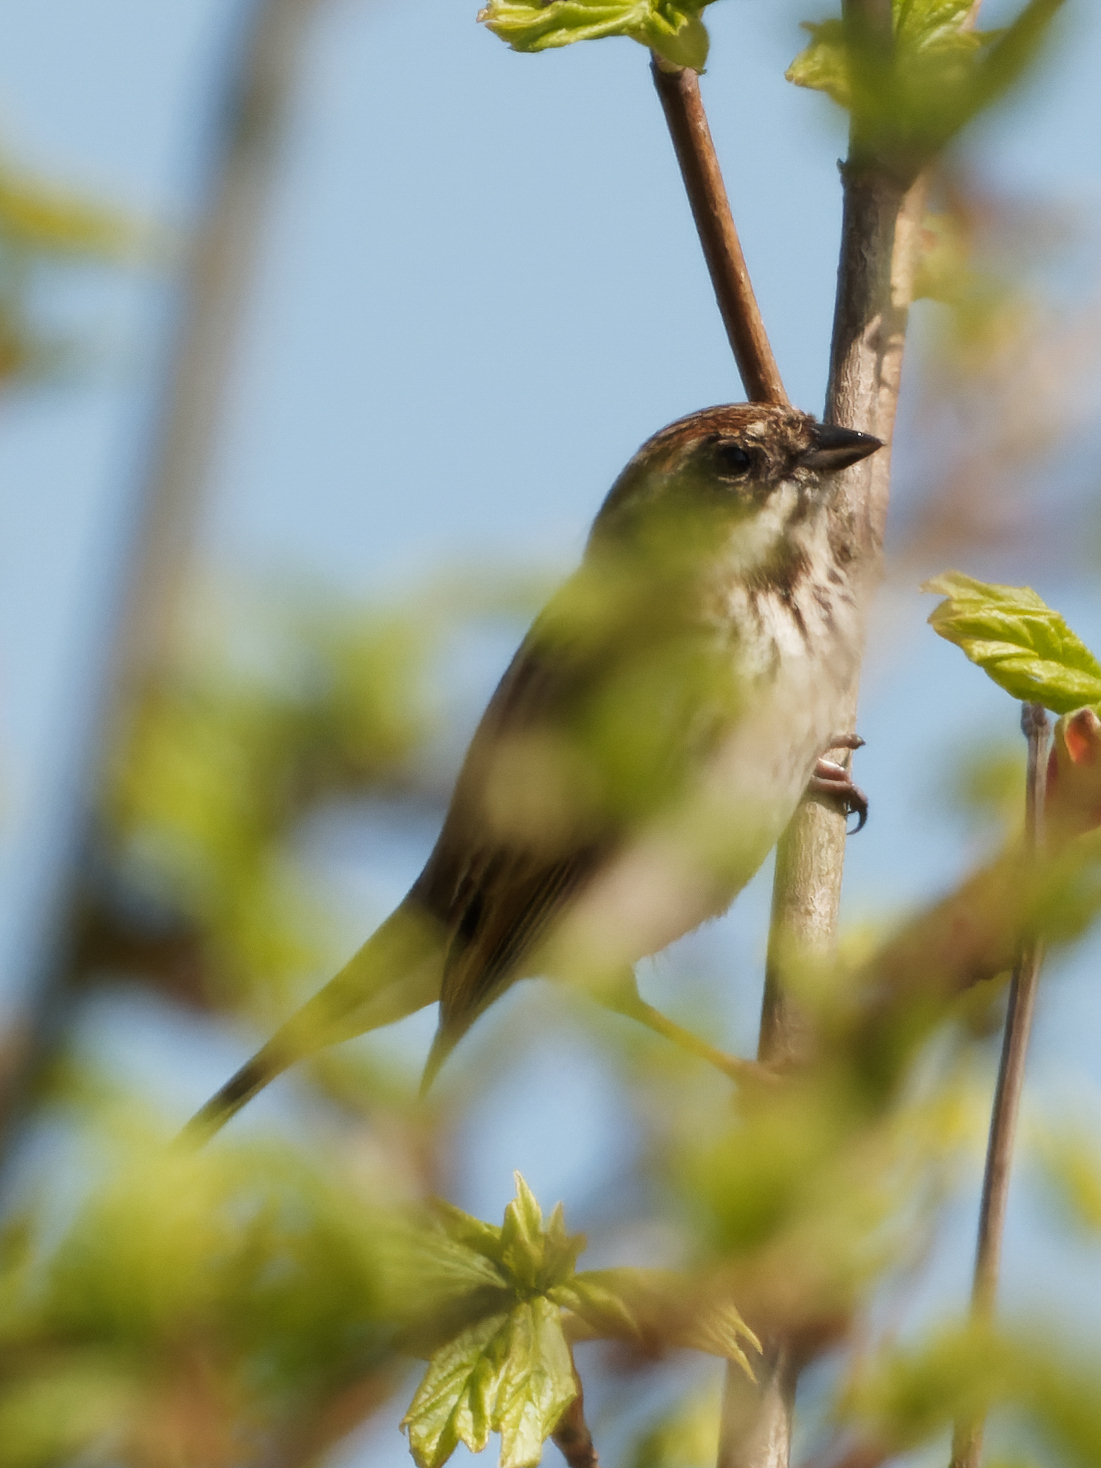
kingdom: Animalia
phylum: Chordata
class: Aves
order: Passeriformes
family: Emberizidae
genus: Emberiza
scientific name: Emberiza schoeniclus
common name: Reed bunting
